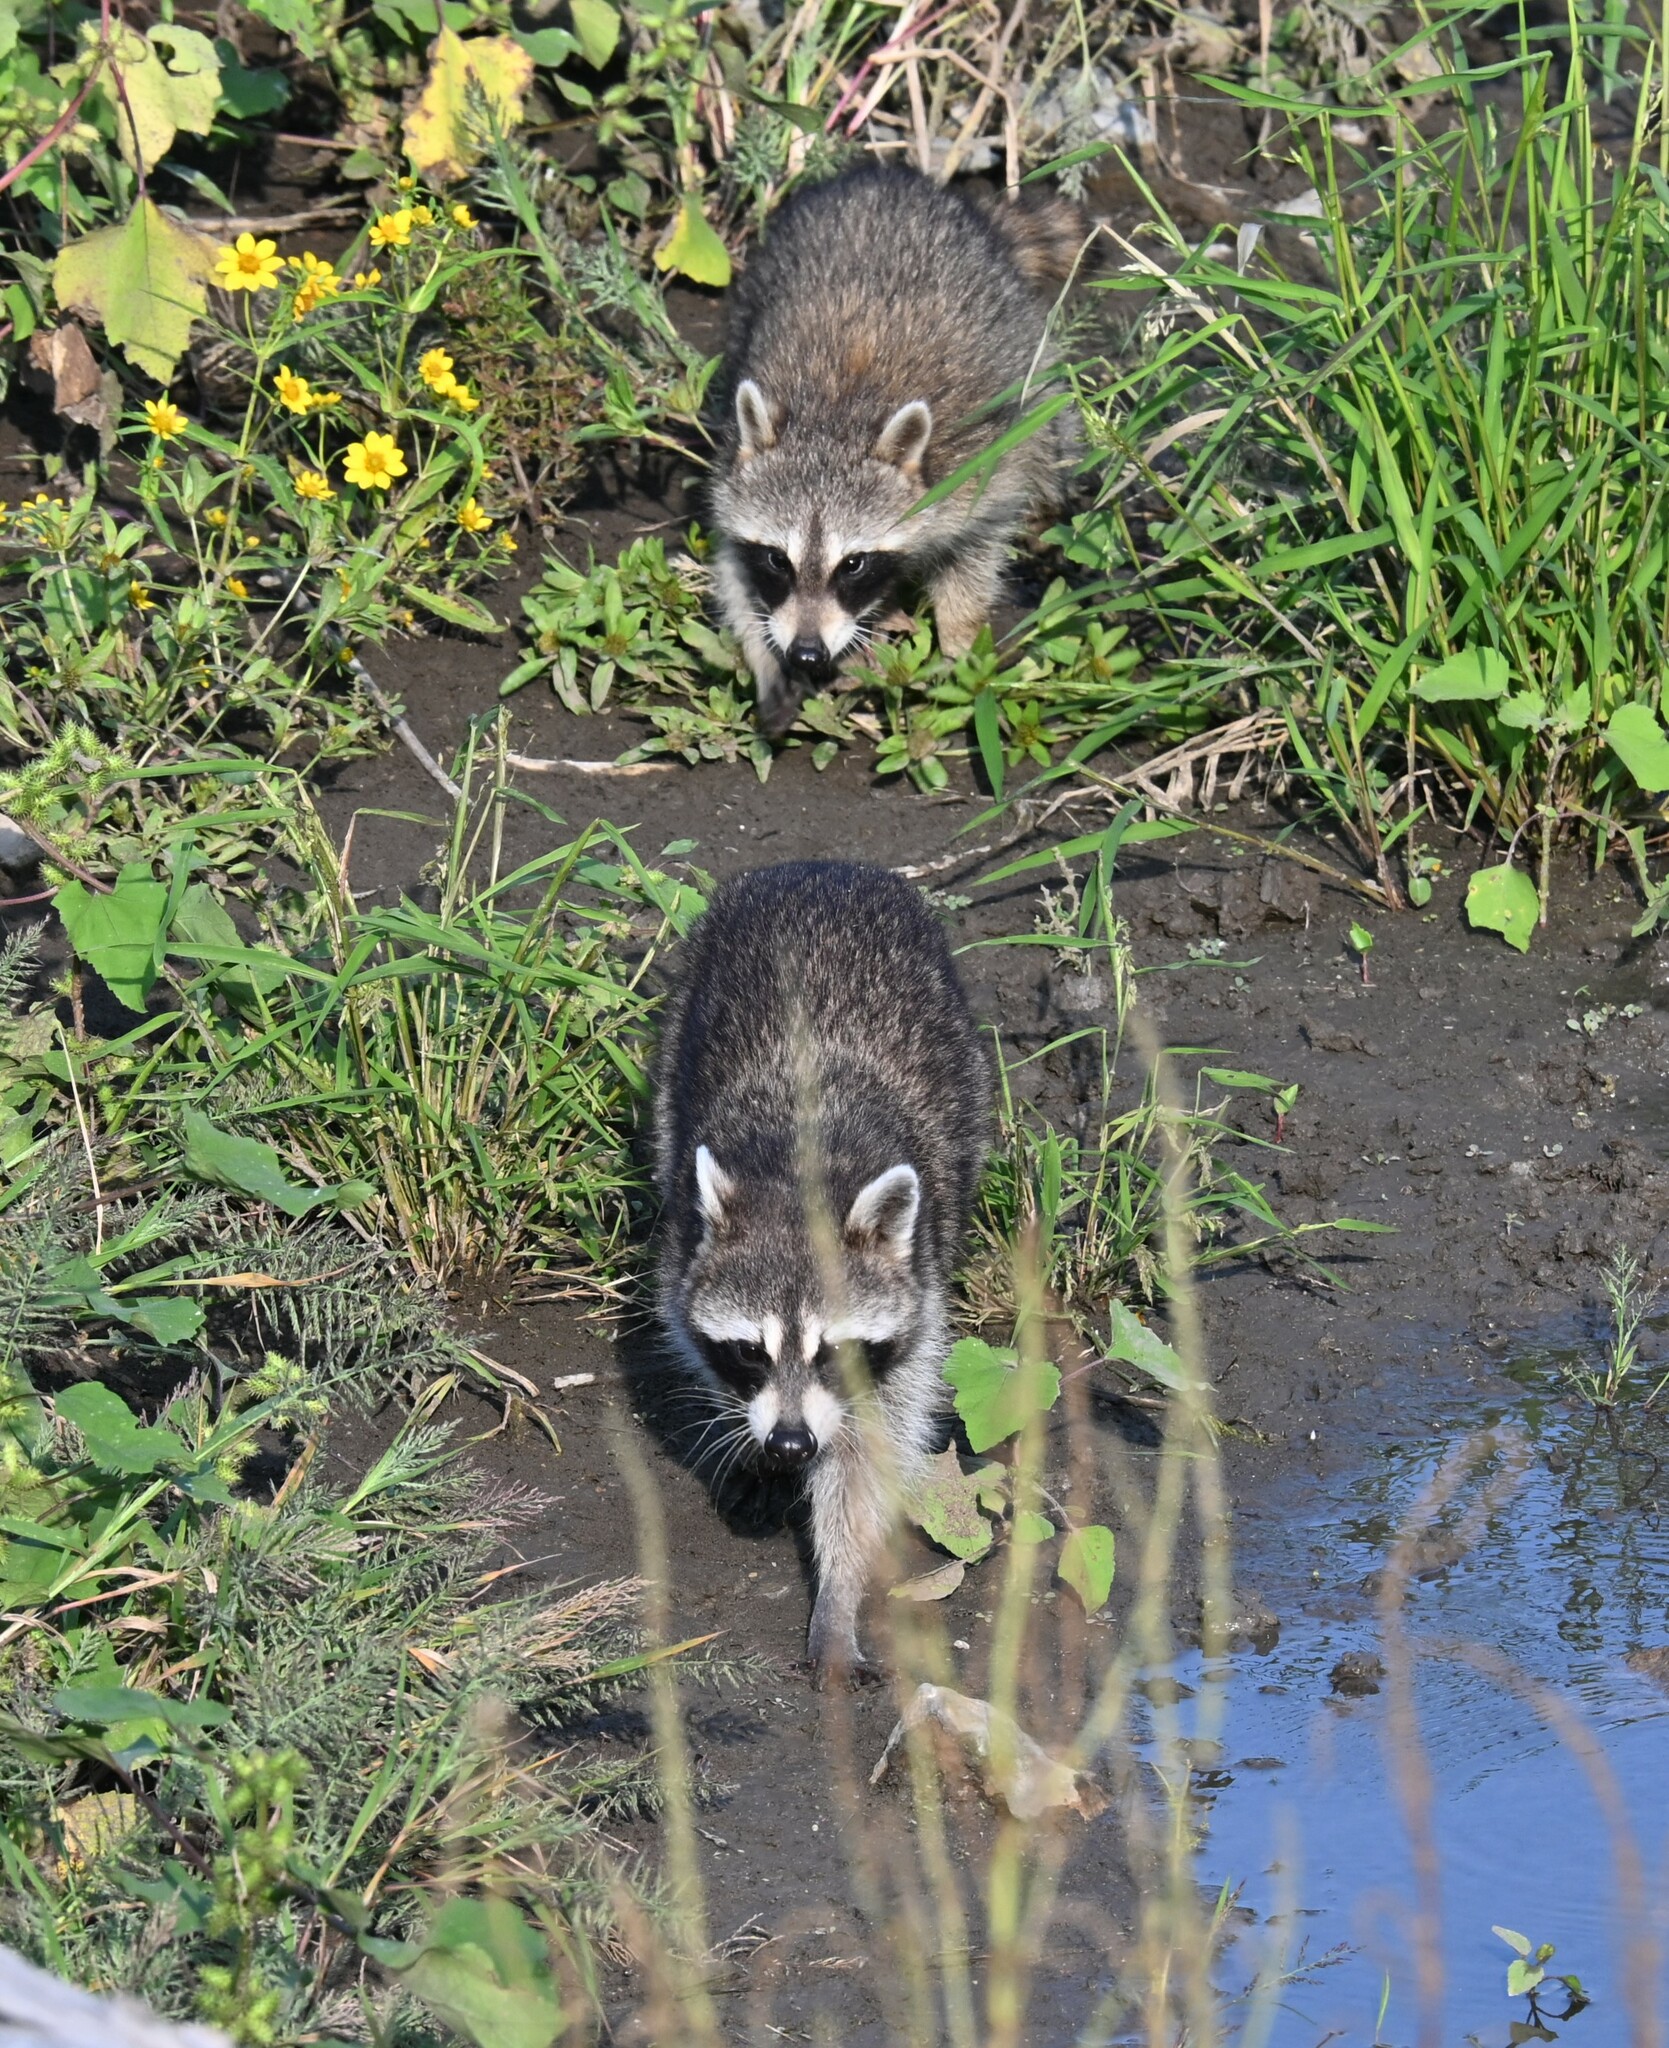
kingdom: Animalia
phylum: Chordata
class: Mammalia
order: Carnivora
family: Procyonidae
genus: Procyon
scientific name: Procyon lotor
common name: Raccoon
